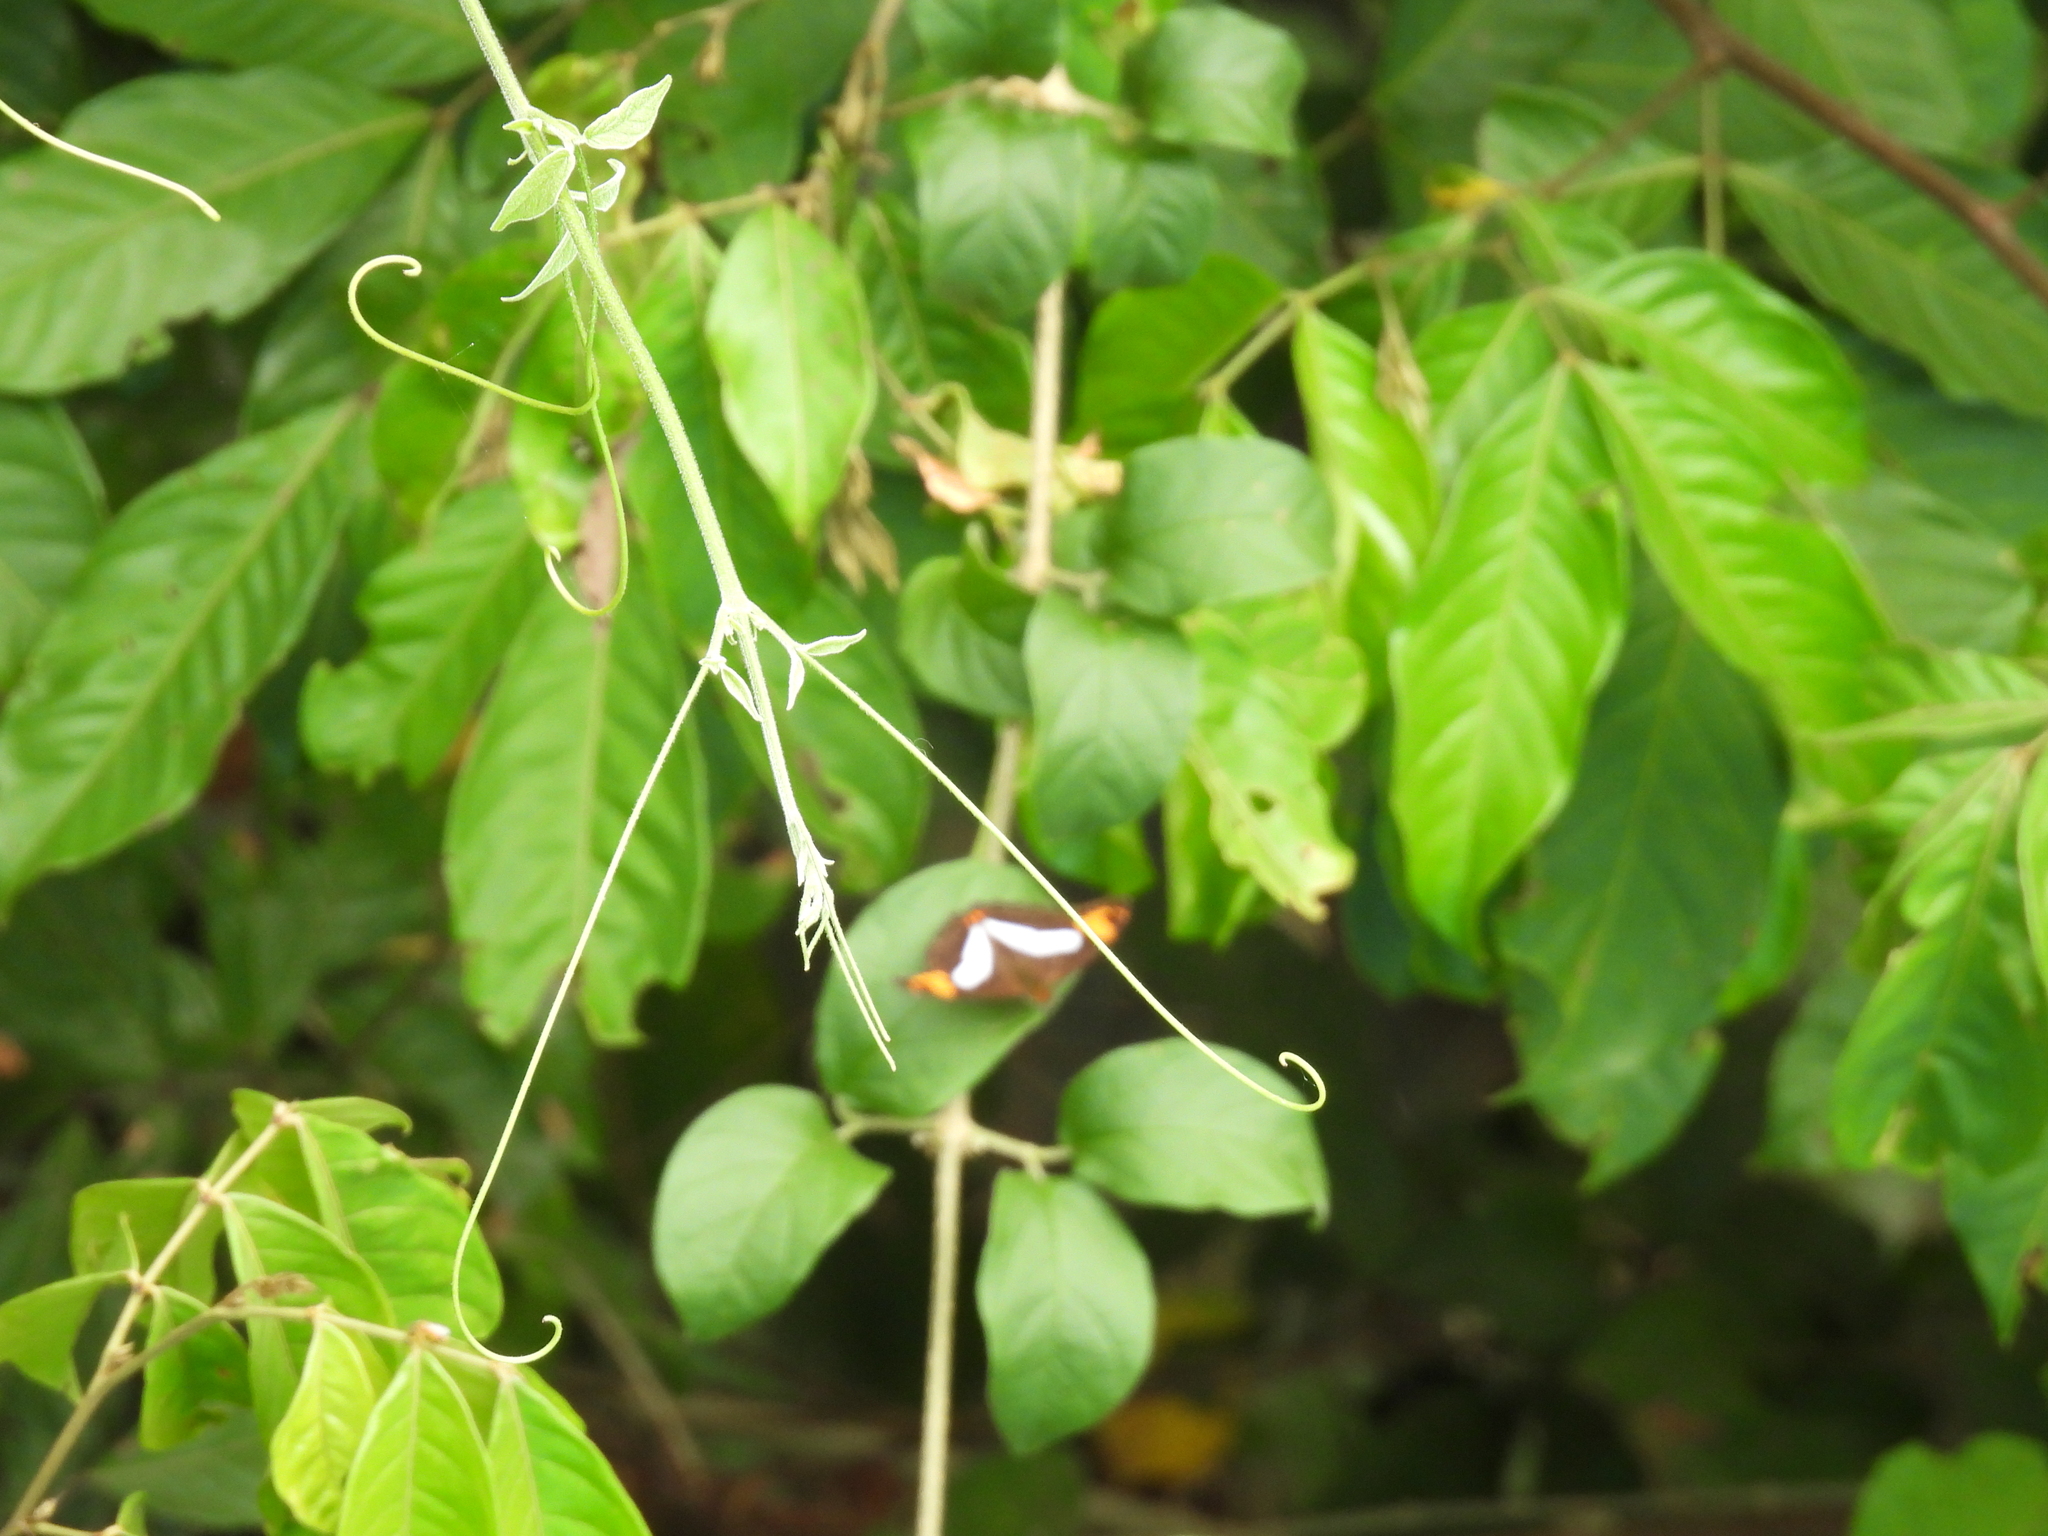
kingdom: Animalia
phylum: Arthropoda
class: Insecta
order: Lepidoptera
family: Nymphalidae
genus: Limenitis
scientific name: Limenitis naxia
